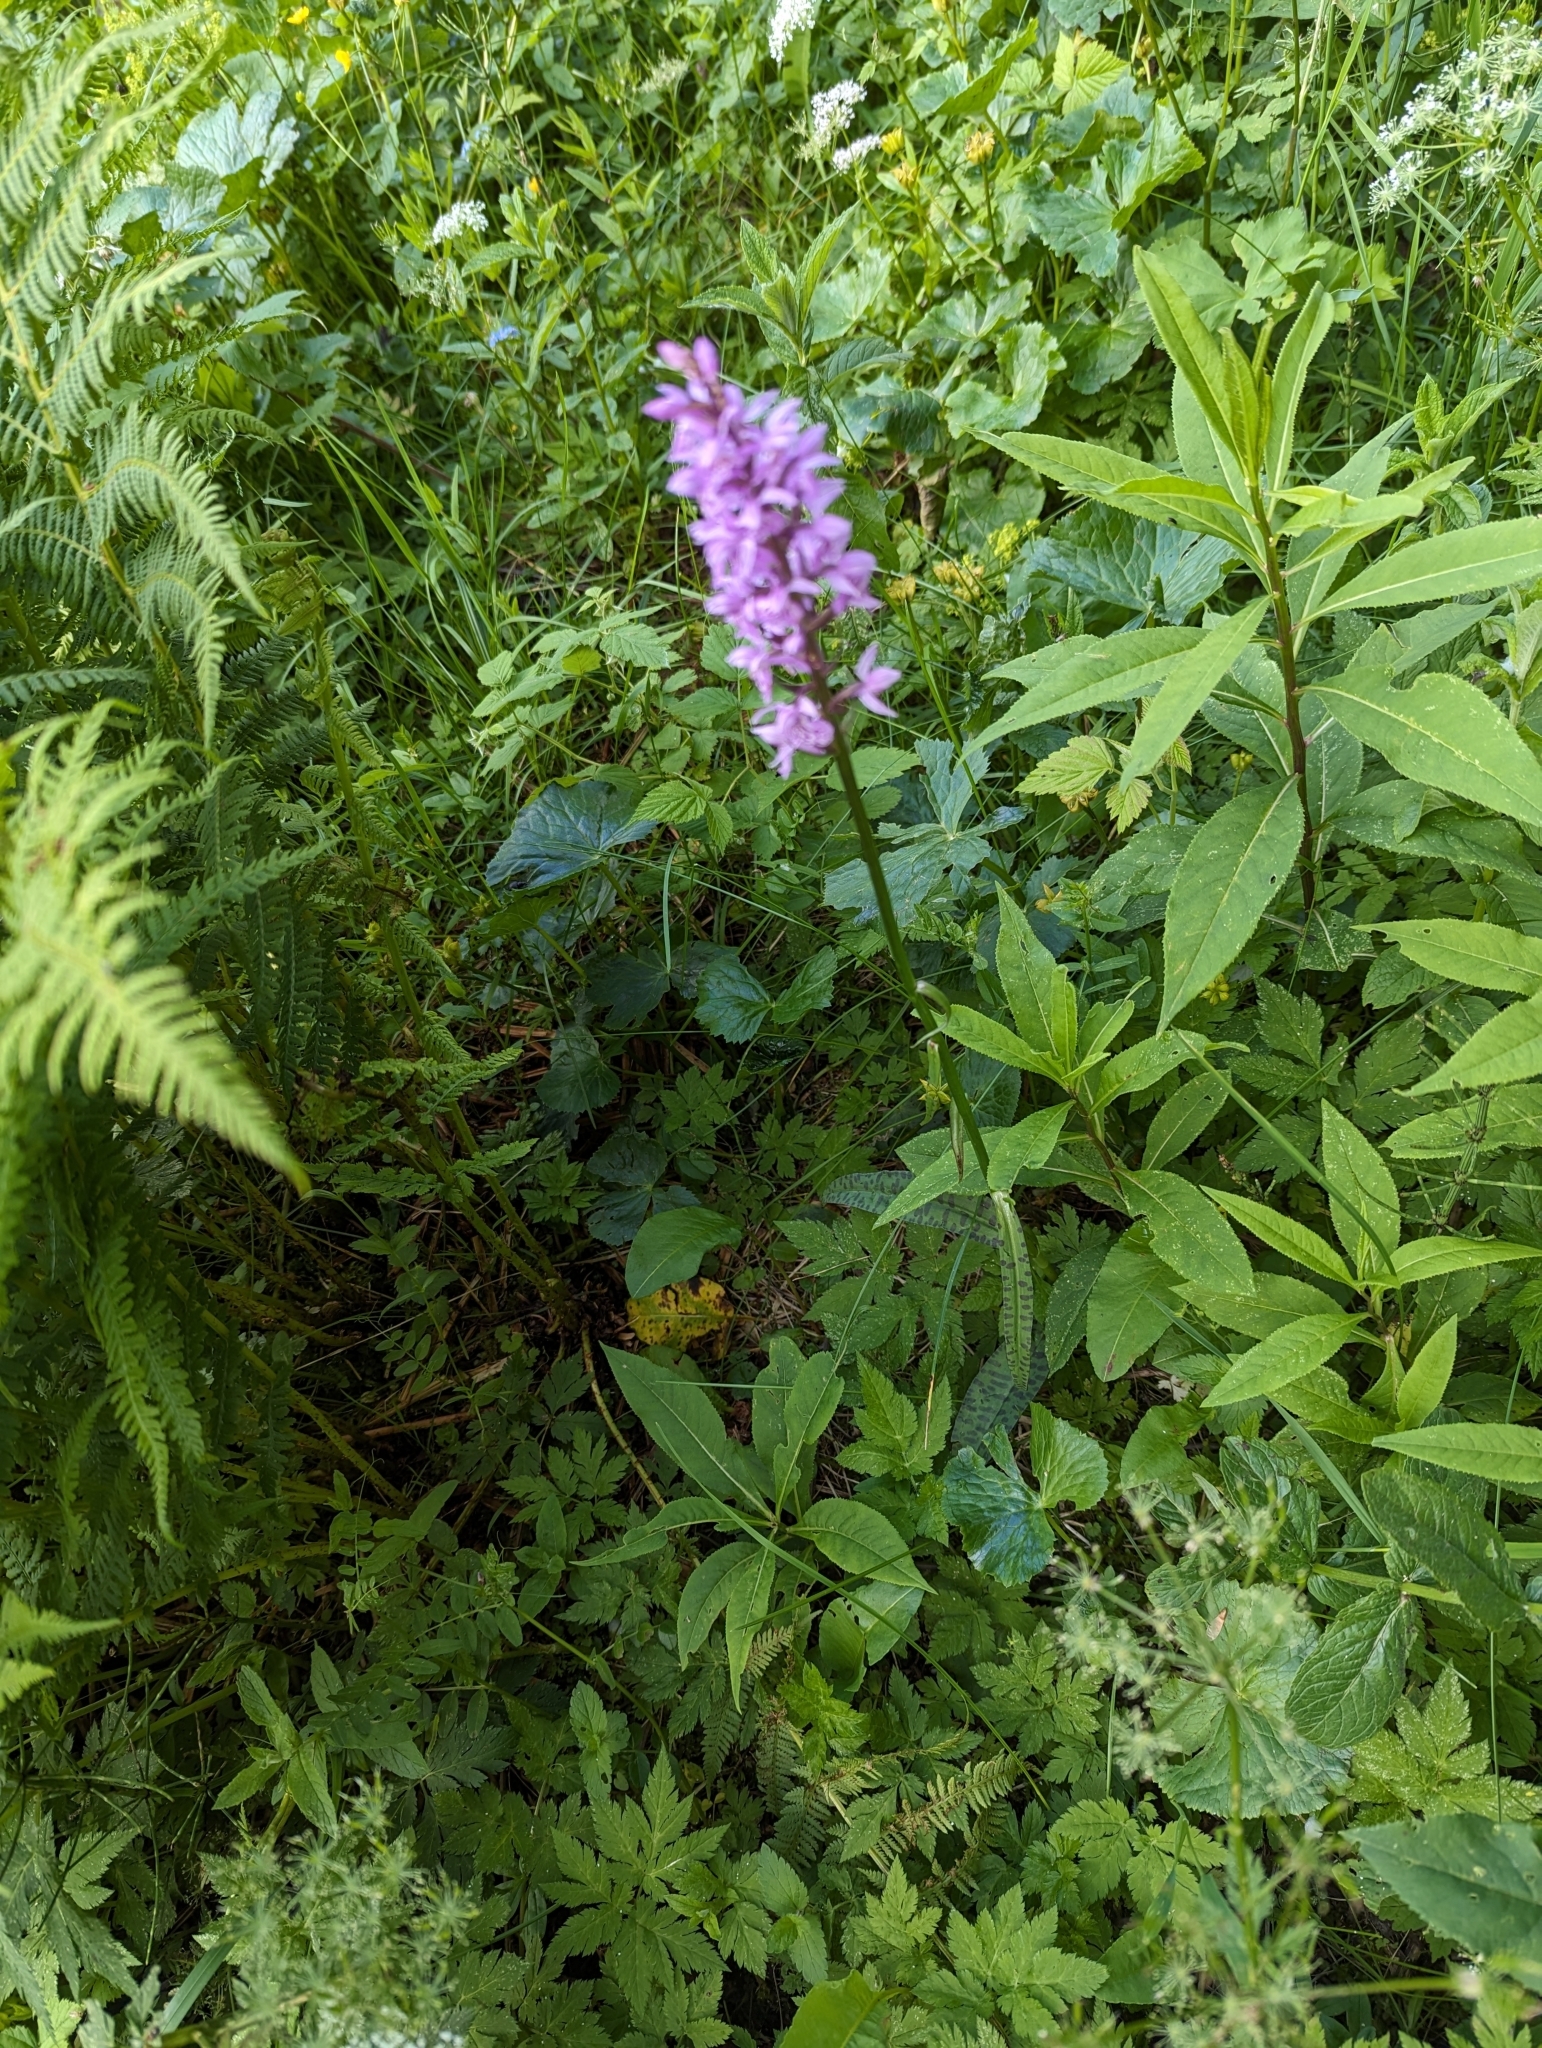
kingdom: Plantae
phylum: Tracheophyta
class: Liliopsida
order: Asparagales
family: Orchidaceae
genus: Dactylorhiza
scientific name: Dactylorhiza maculata
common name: Heath spotted-orchid
